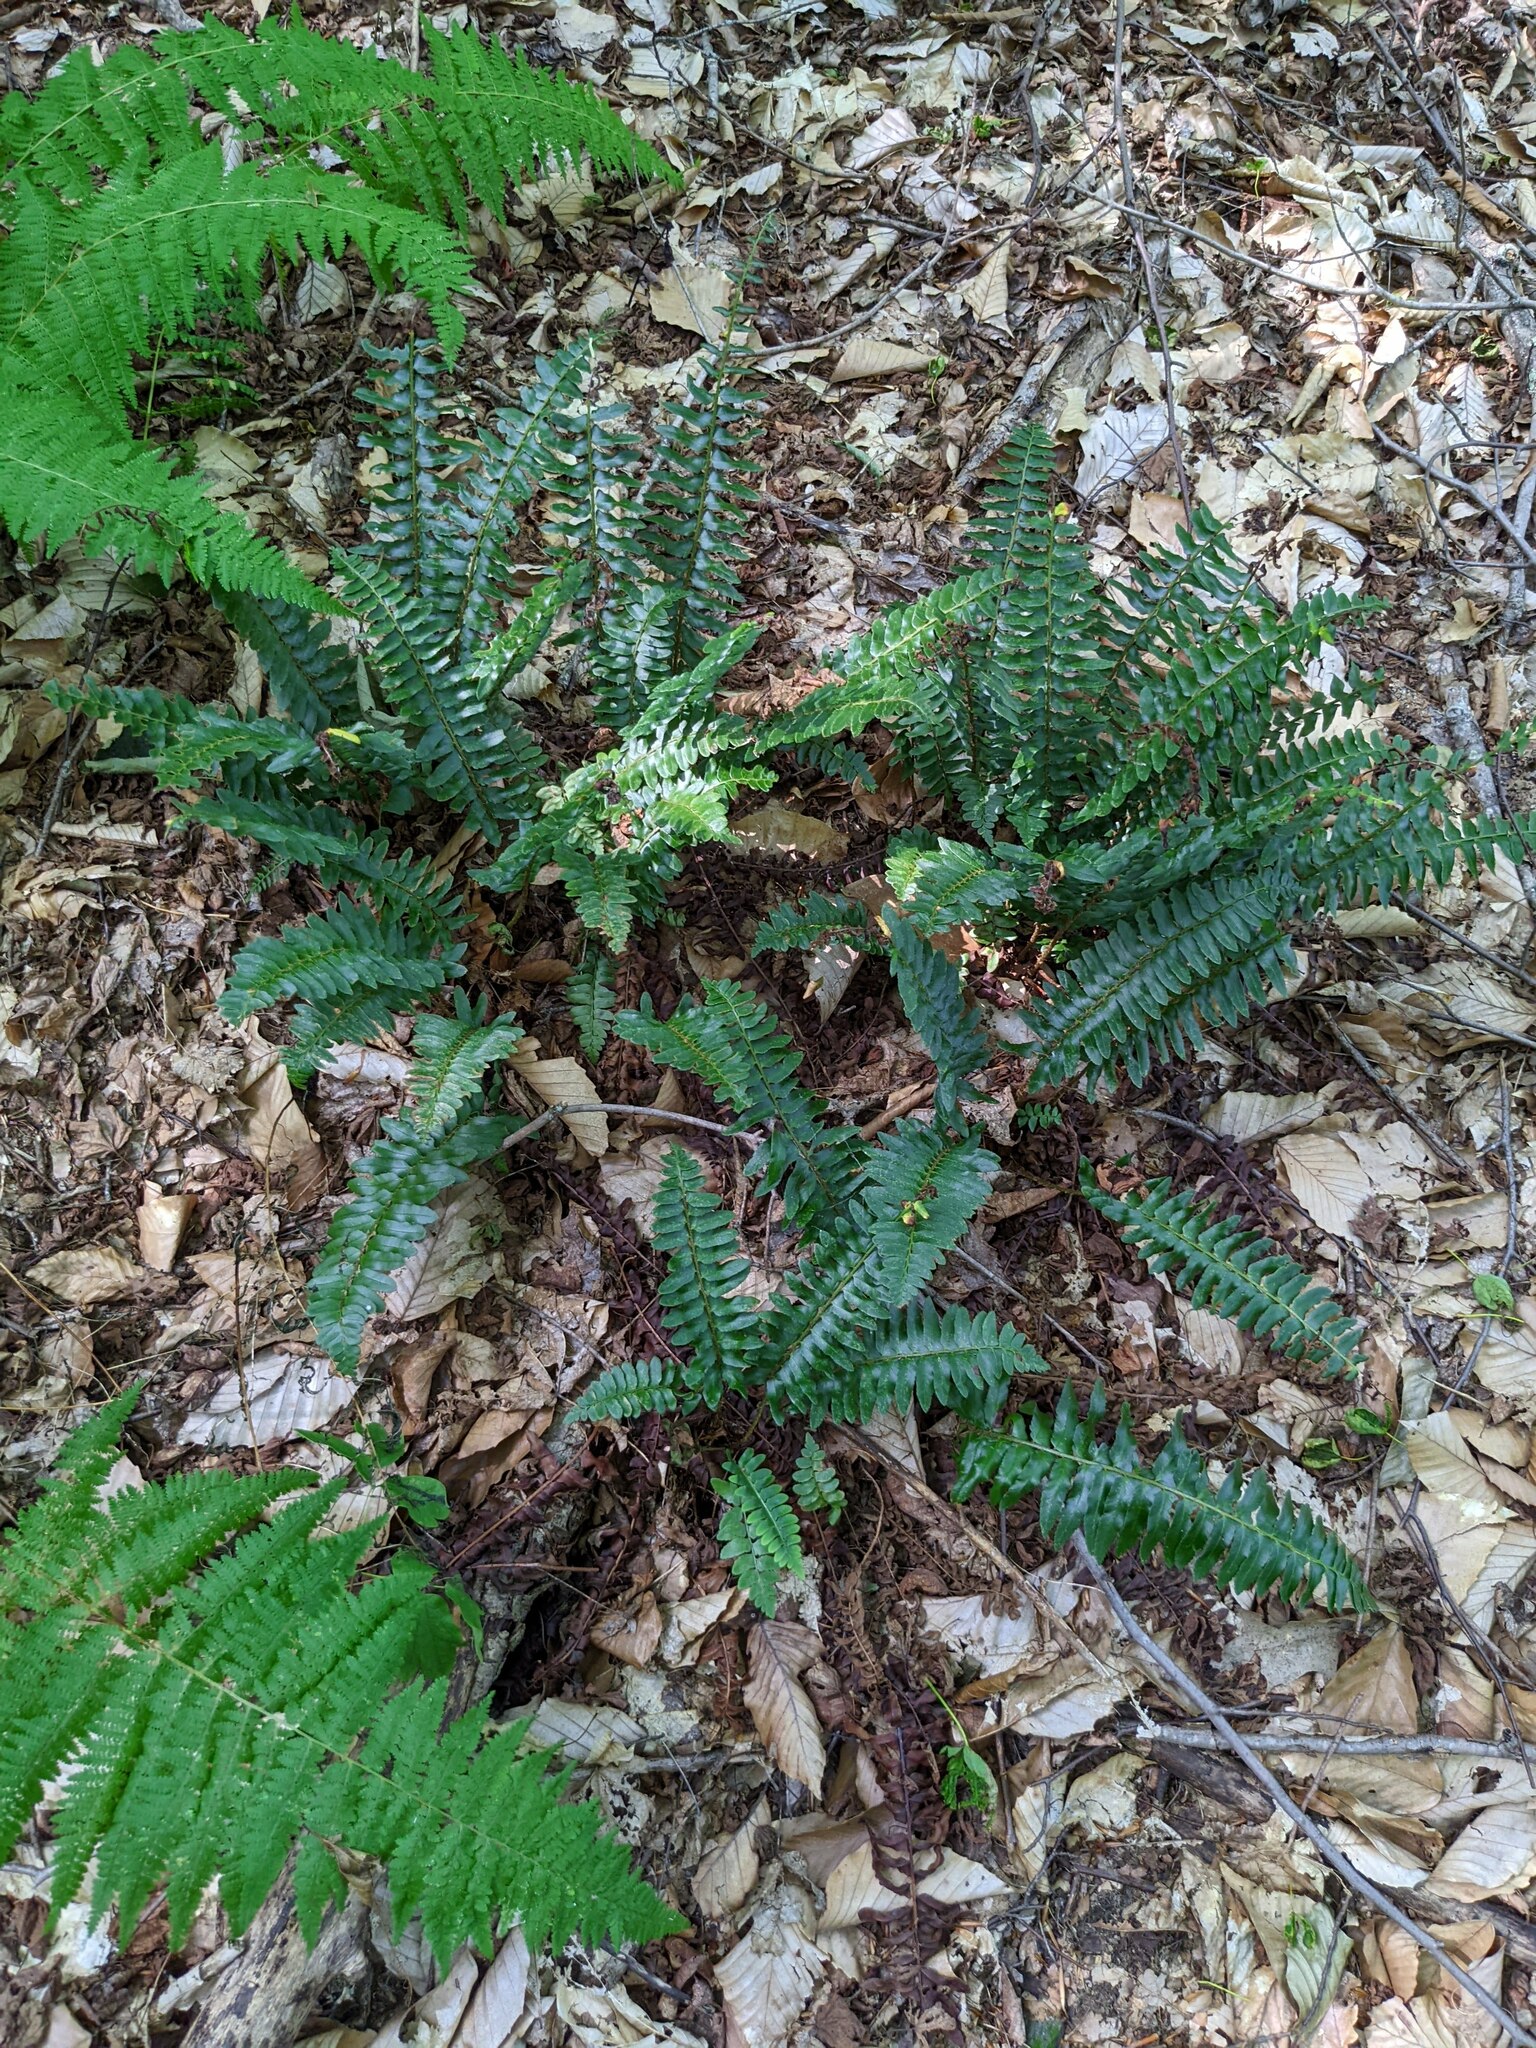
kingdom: Plantae
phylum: Tracheophyta
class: Polypodiopsida
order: Polypodiales
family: Dryopteridaceae
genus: Polystichum
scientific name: Polystichum acrostichoides
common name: Christmas fern
